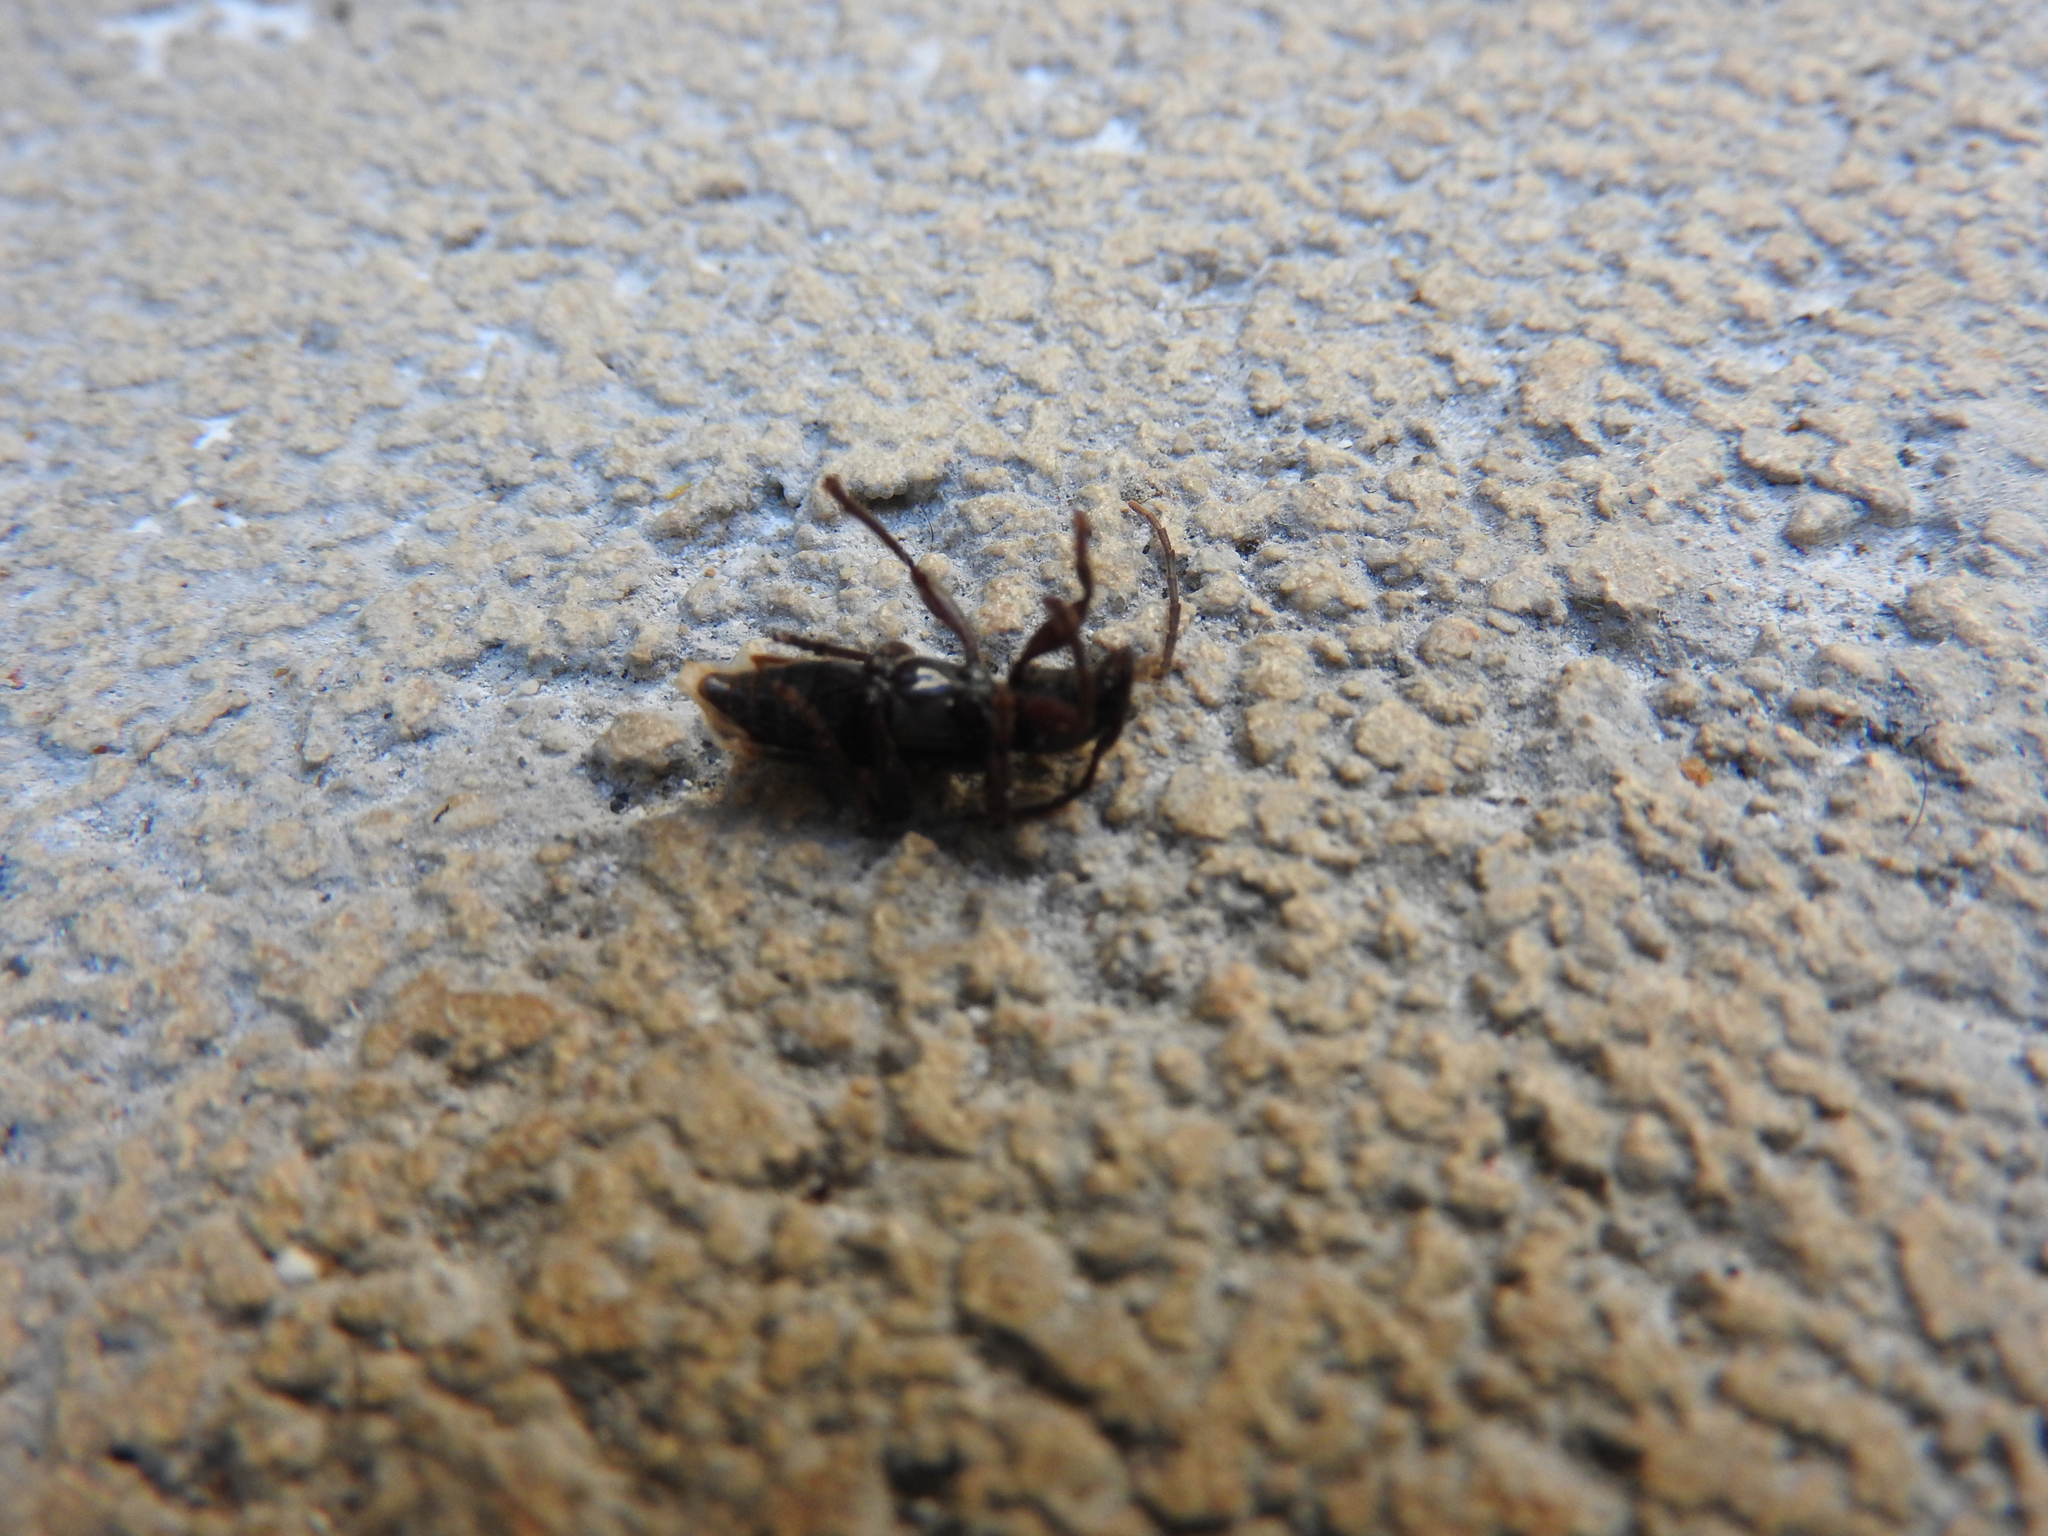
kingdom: Animalia
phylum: Arthropoda
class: Insecta
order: Coleoptera
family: Cerambycidae
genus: Poecilomallus
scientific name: Poecilomallus palpalis
